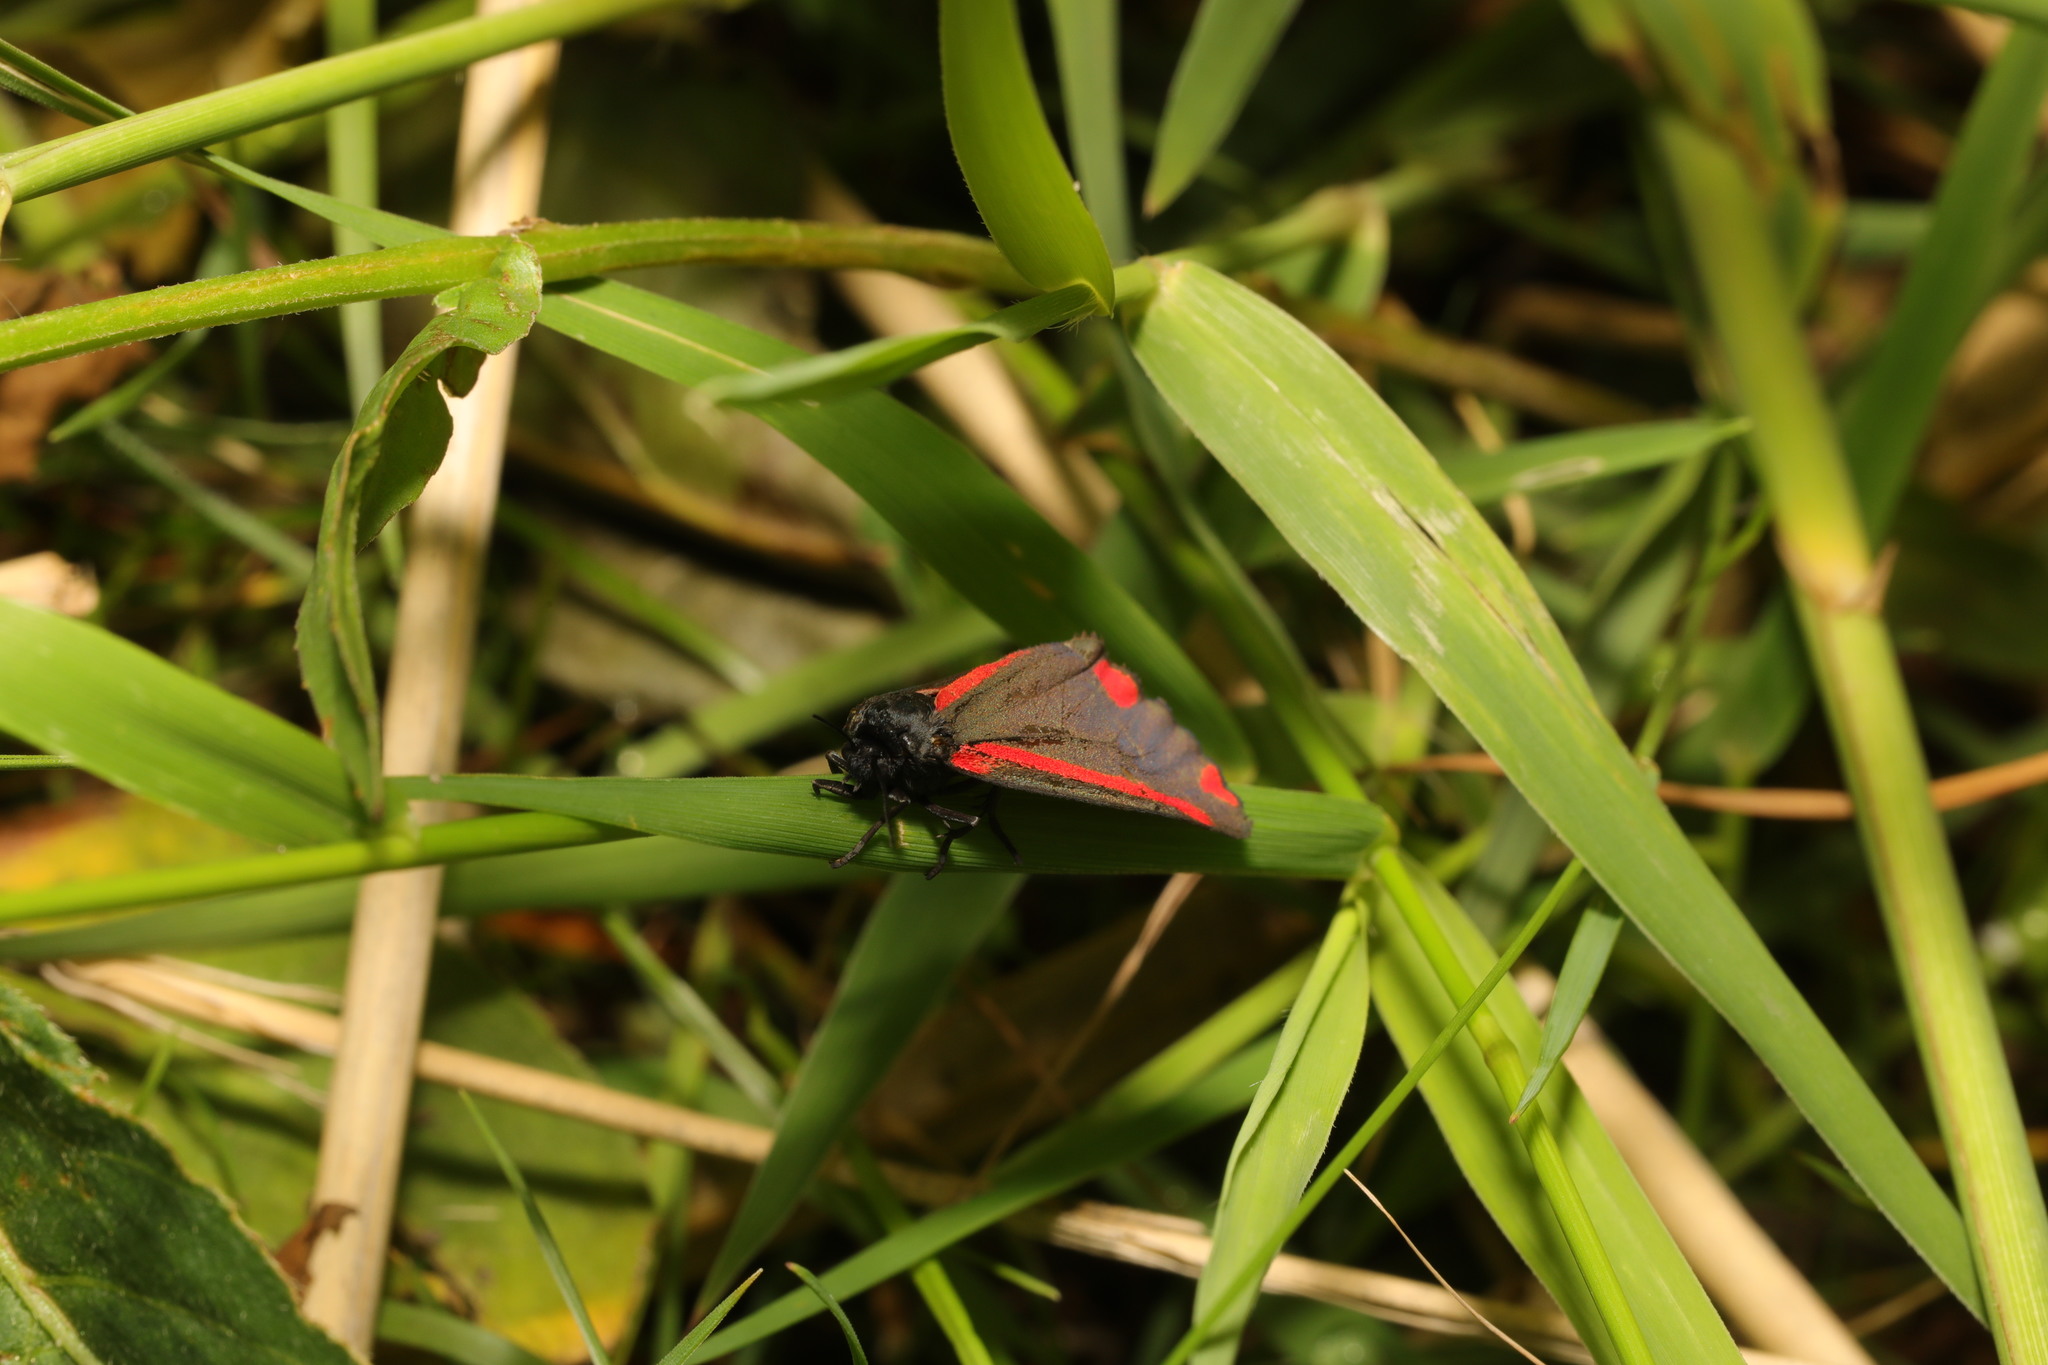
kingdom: Animalia
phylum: Arthropoda
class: Insecta
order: Lepidoptera
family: Erebidae
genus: Tyria
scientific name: Tyria jacobaeae
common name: Cinnabar
